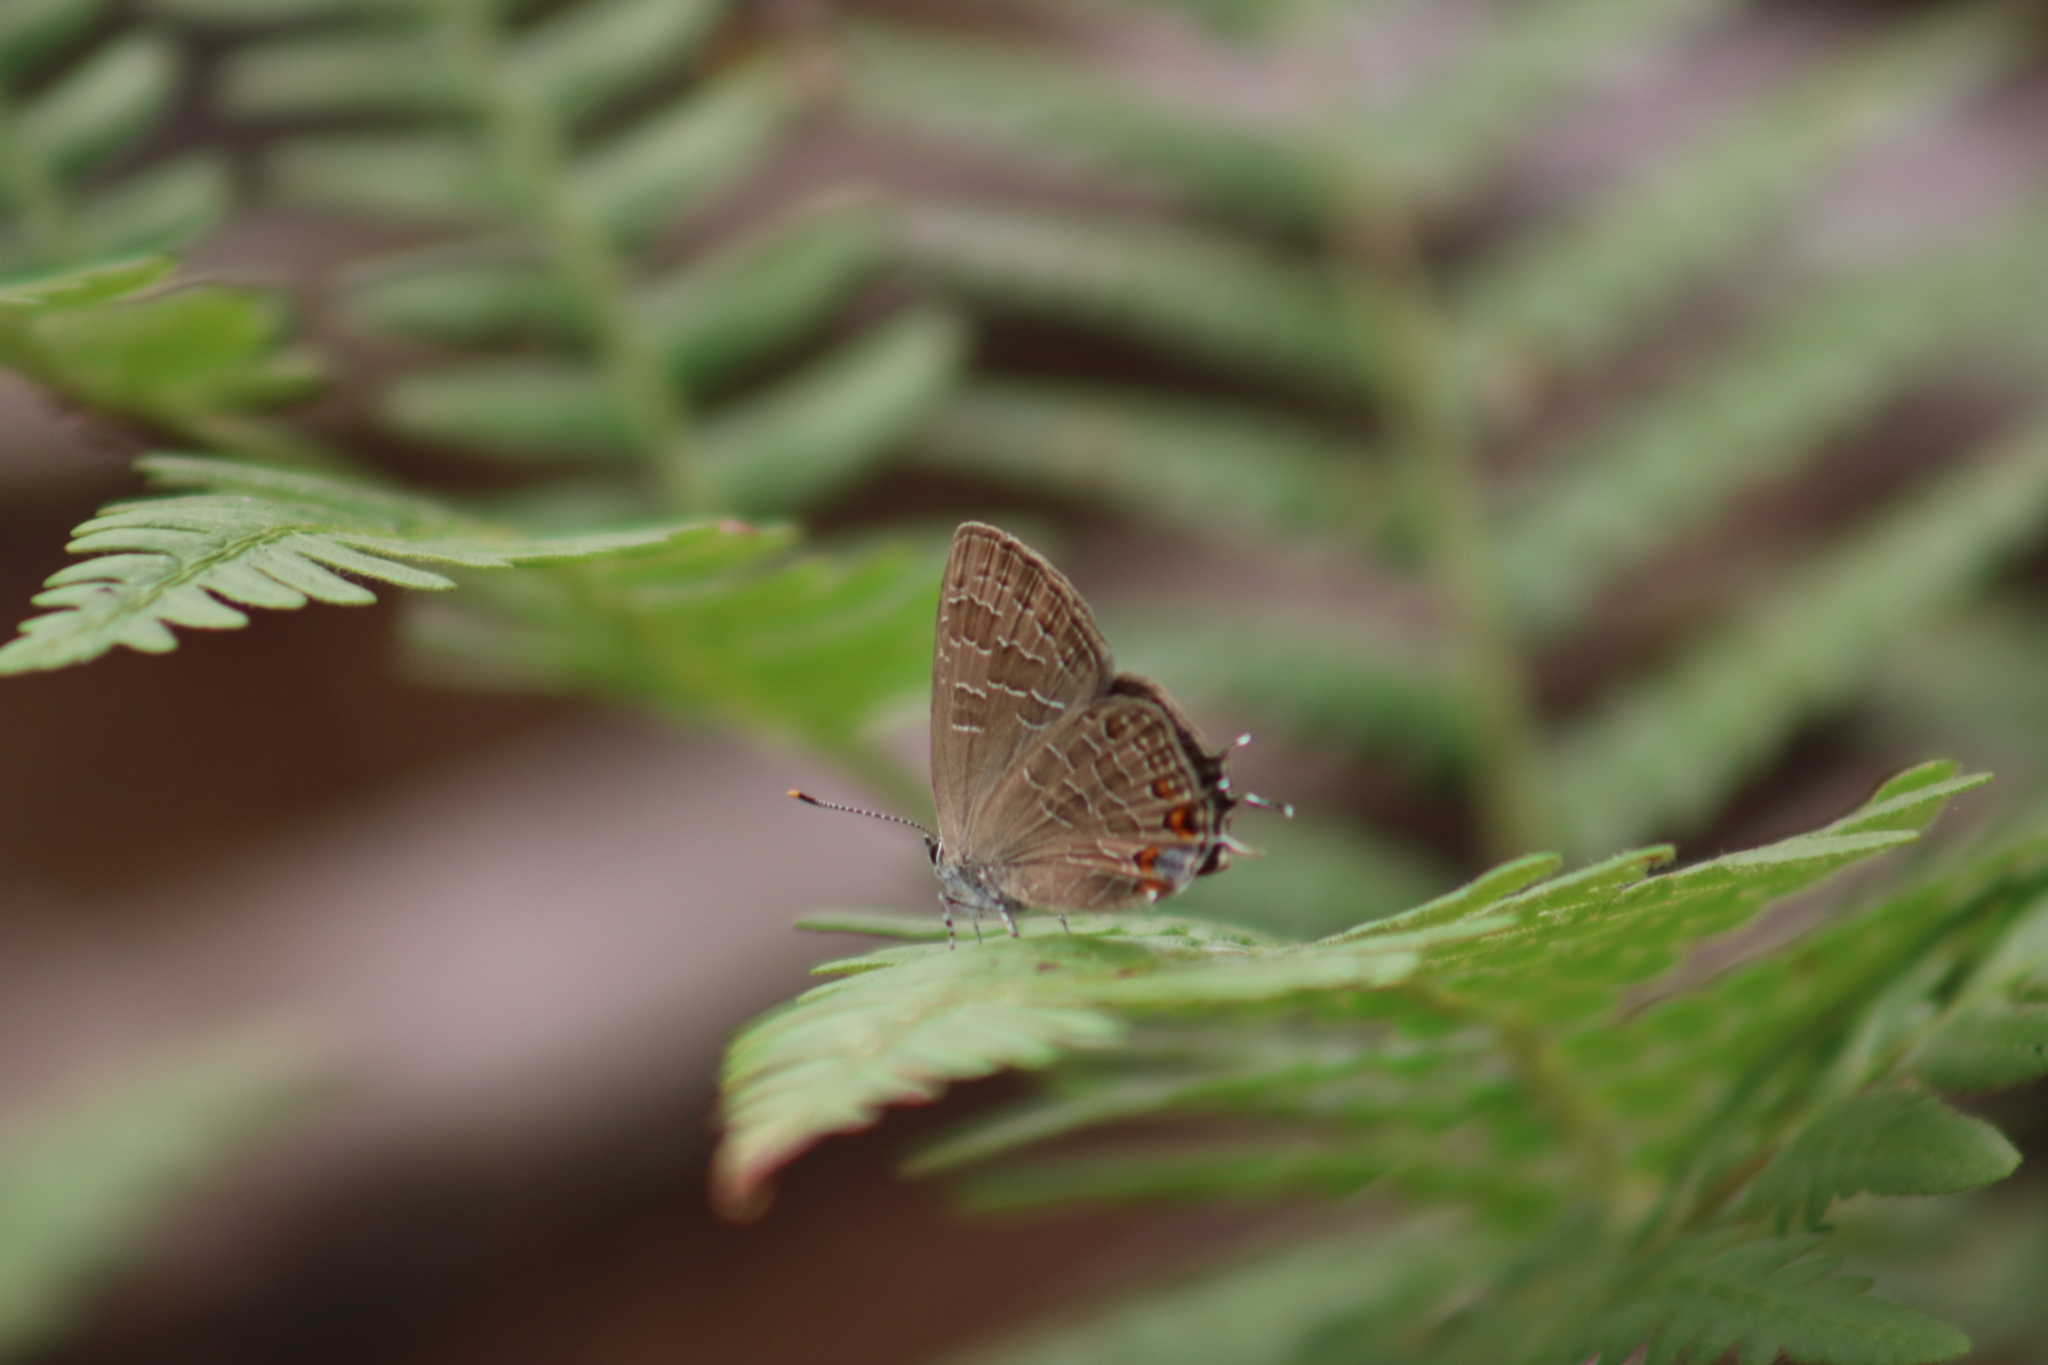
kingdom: Animalia
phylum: Arthropoda
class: Insecta
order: Lepidoptera
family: Lycaenidae
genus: Satyrium
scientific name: Satyrium liparops
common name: Striped hairstreak
